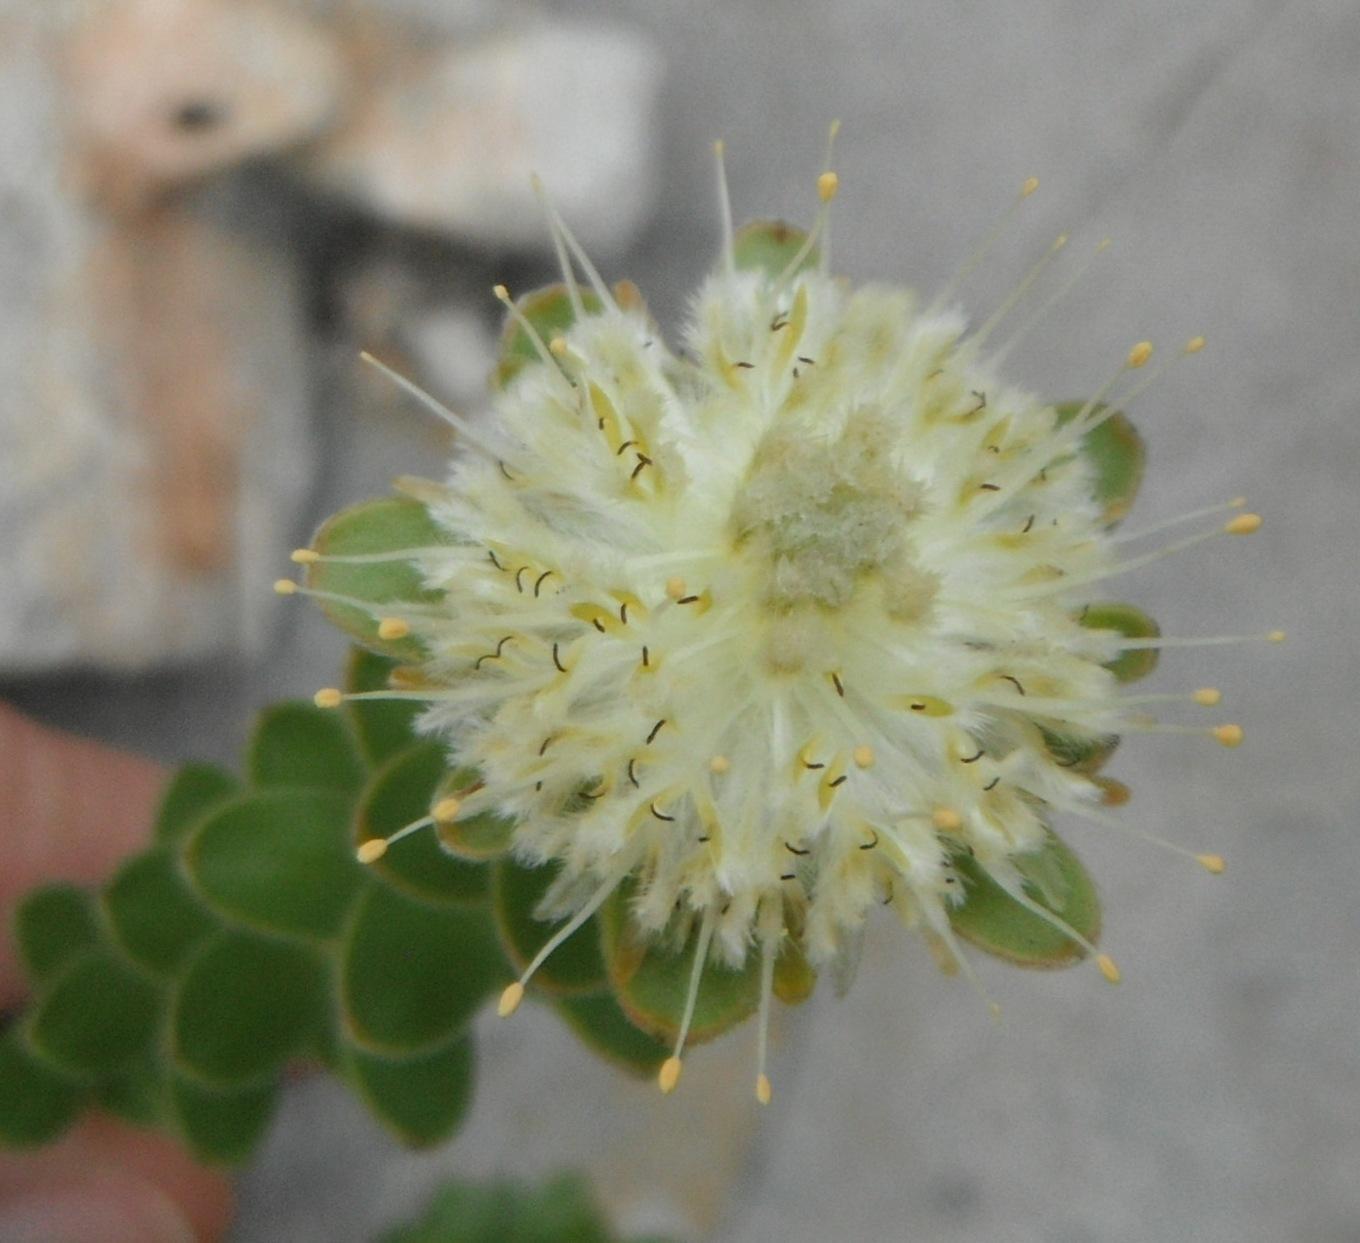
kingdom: Plantae
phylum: Tracheophyta
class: Magnoliopsida
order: Proteales
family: Proteaceae
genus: Diastella
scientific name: Diastella thymelaeoides
